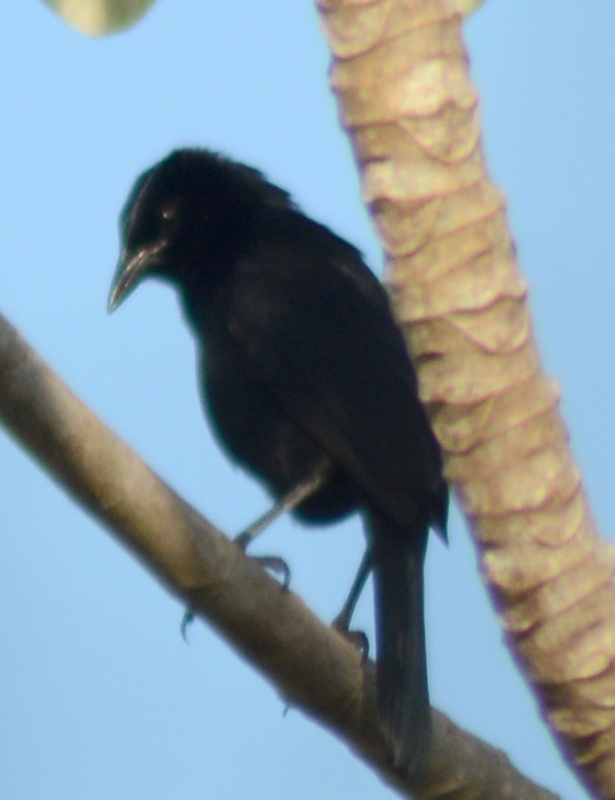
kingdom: Animalia
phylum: Chordata
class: Aves
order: Passeriformes
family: Icteridae
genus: Dives
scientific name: Dives dives
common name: Melodious blackbird
